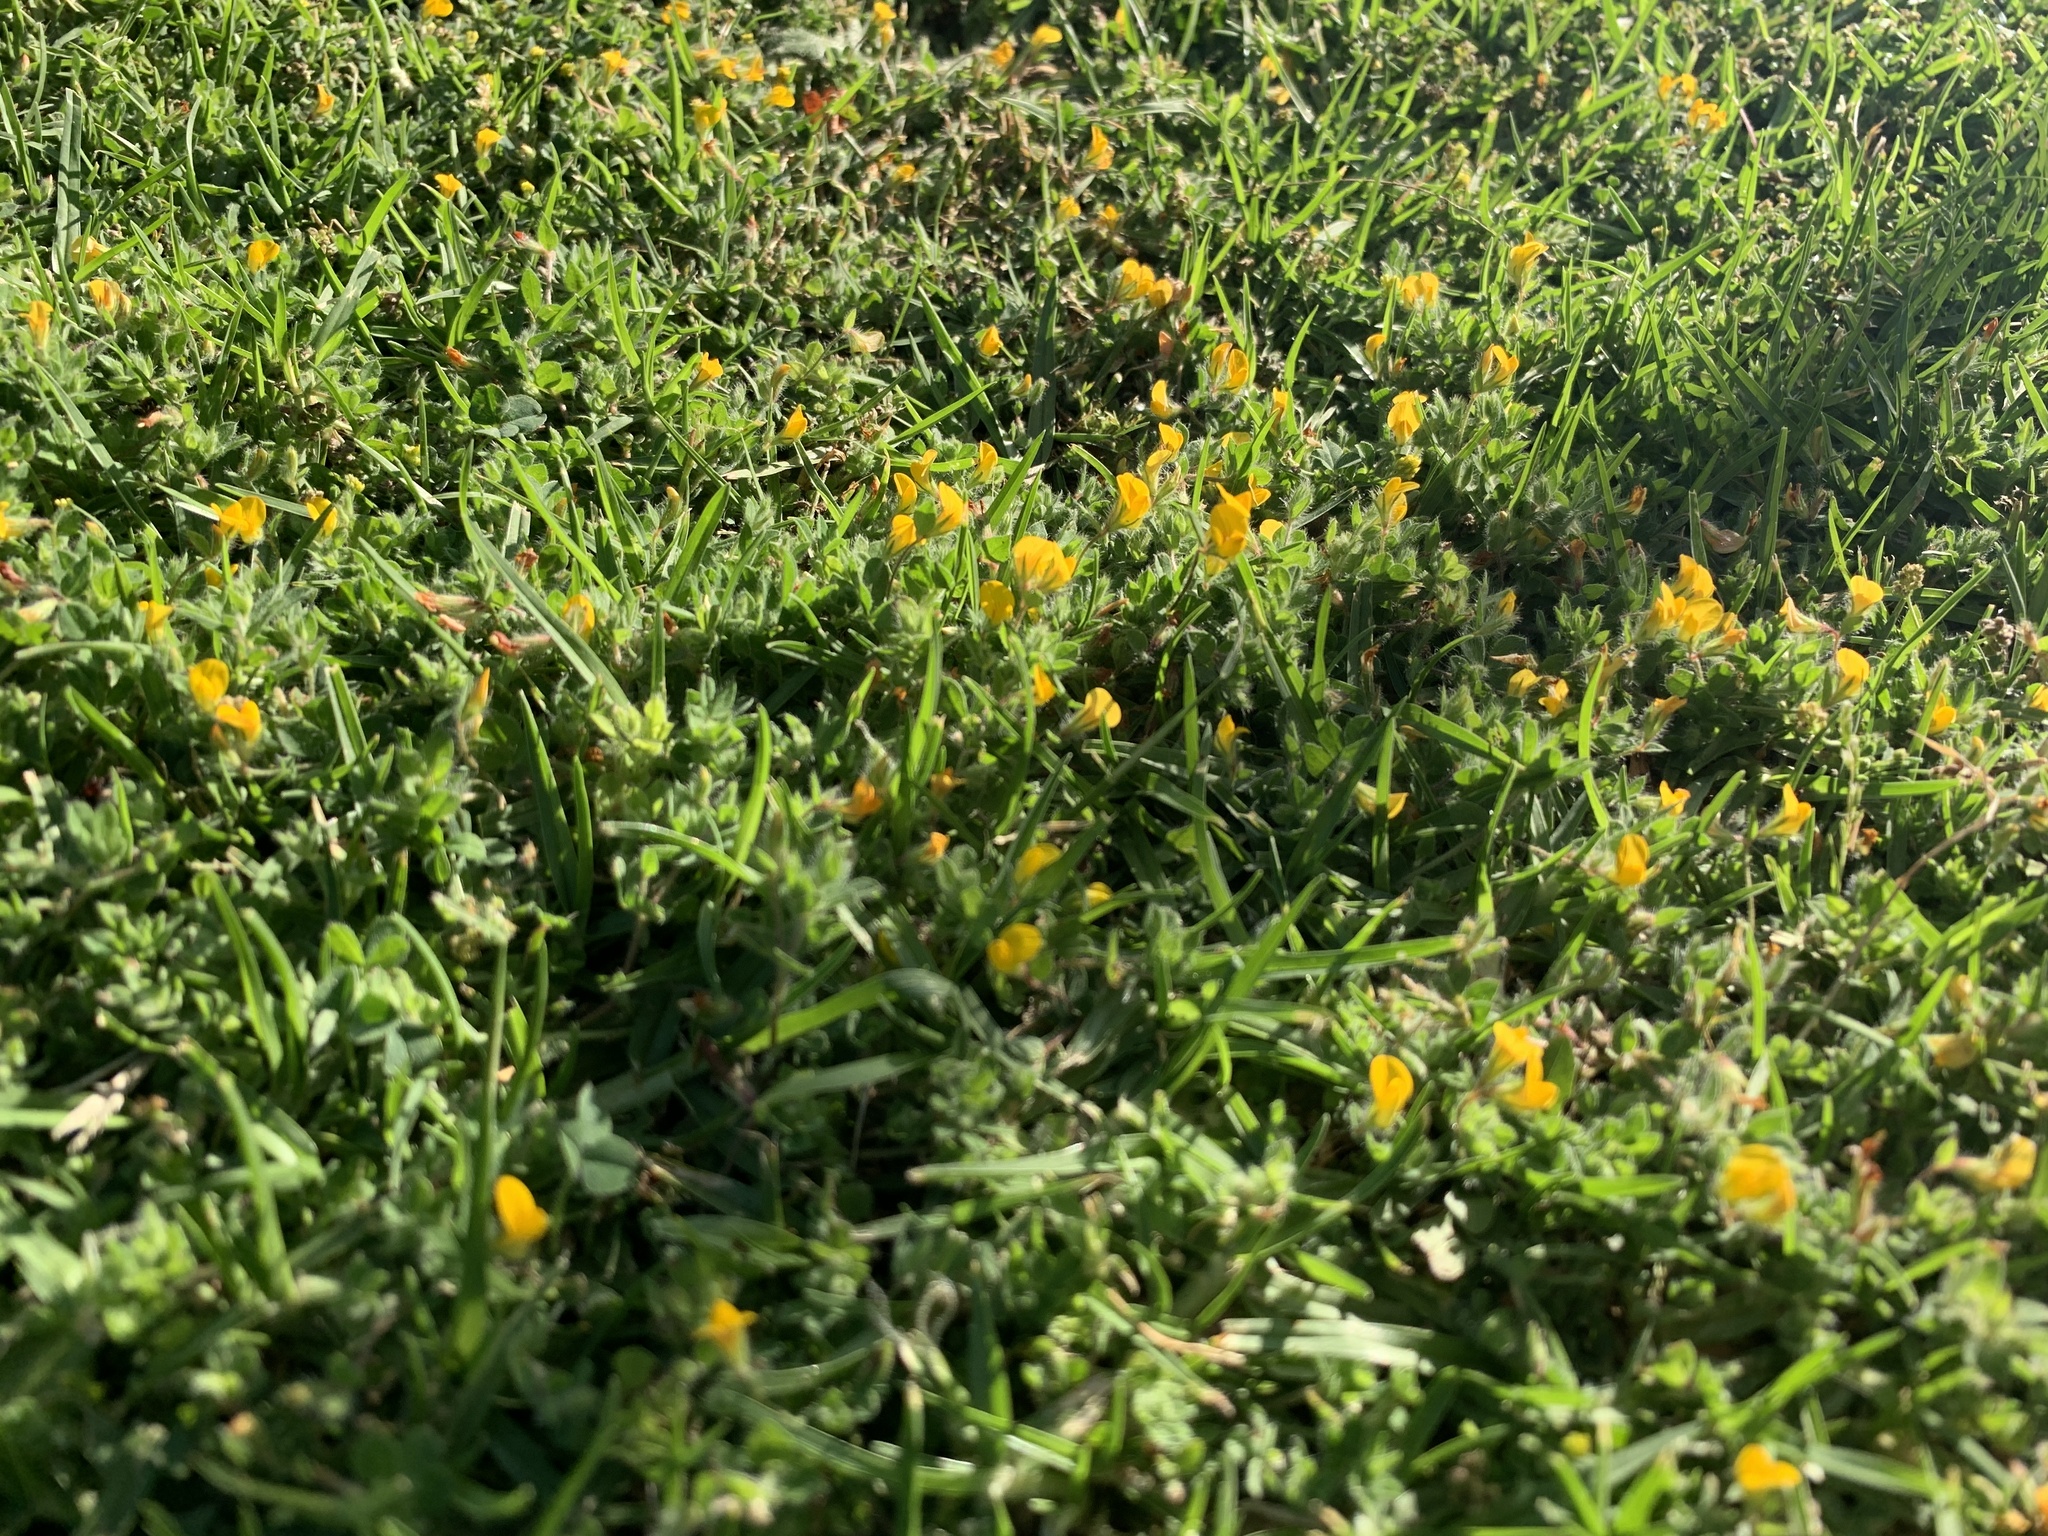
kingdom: Plantae
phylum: Tracheophyta
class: Magnoliopsida
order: Fabales
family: Fabaceae
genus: Lotus
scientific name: Lotus subbiflorus
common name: Hairy bird's-foot trefoil
